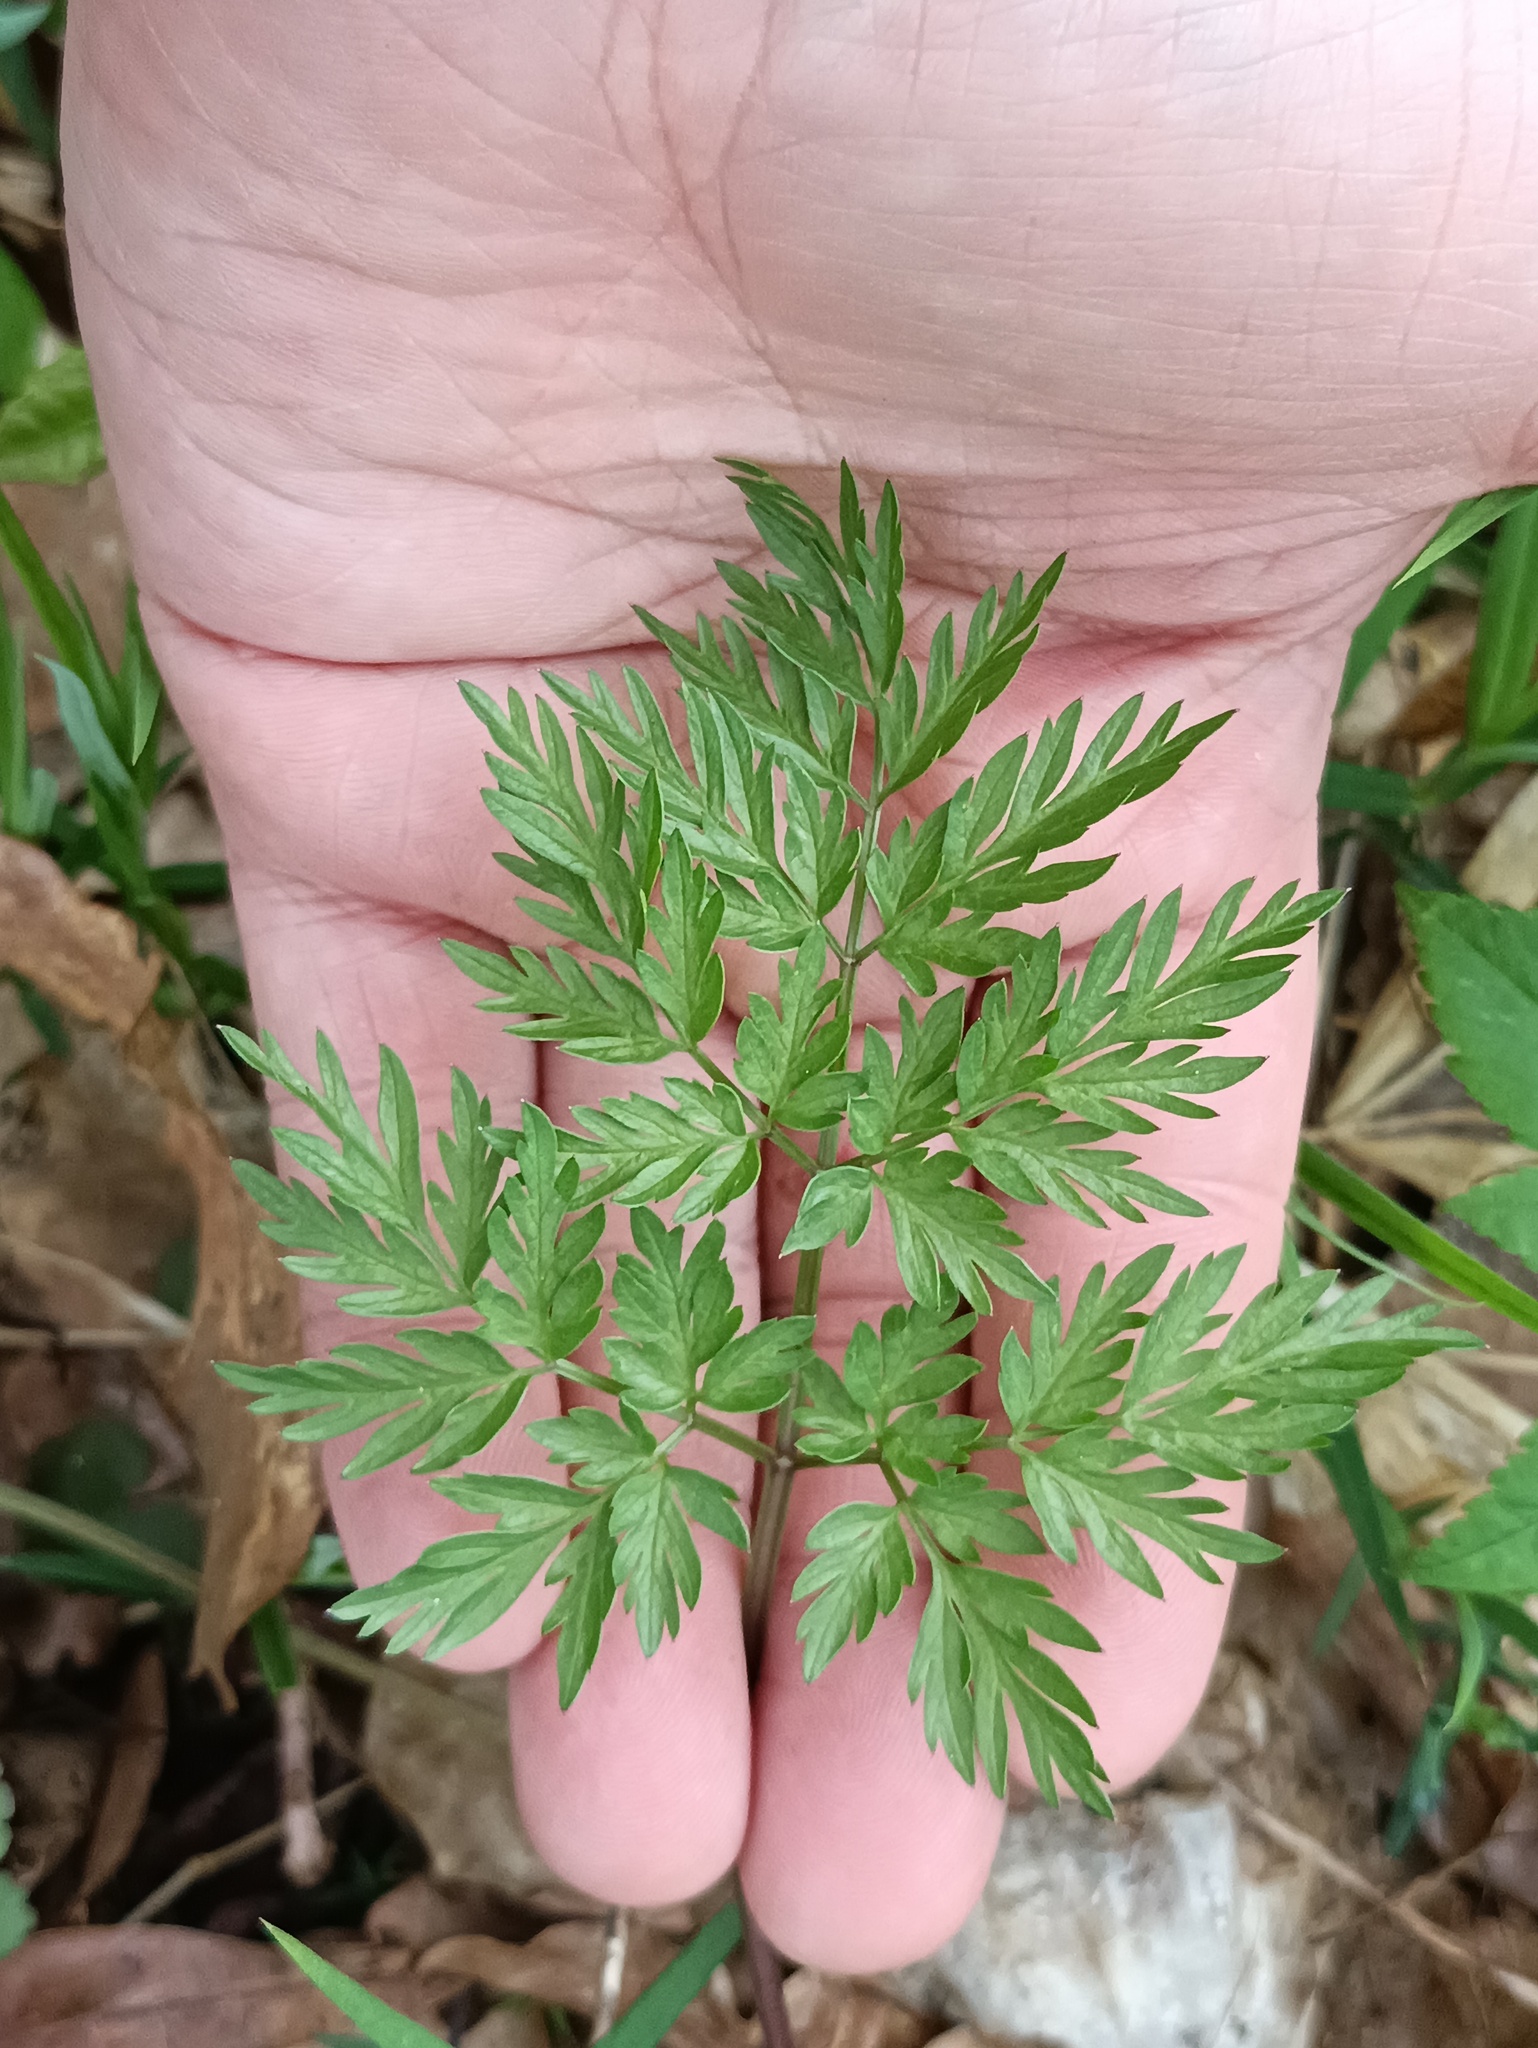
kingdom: Plantae
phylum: Tracheophyta
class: Magnoliopsida
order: Apiales
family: Apiaceae
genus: Anthriscus
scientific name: Anthriscus sylvestris
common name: Cow parsley
